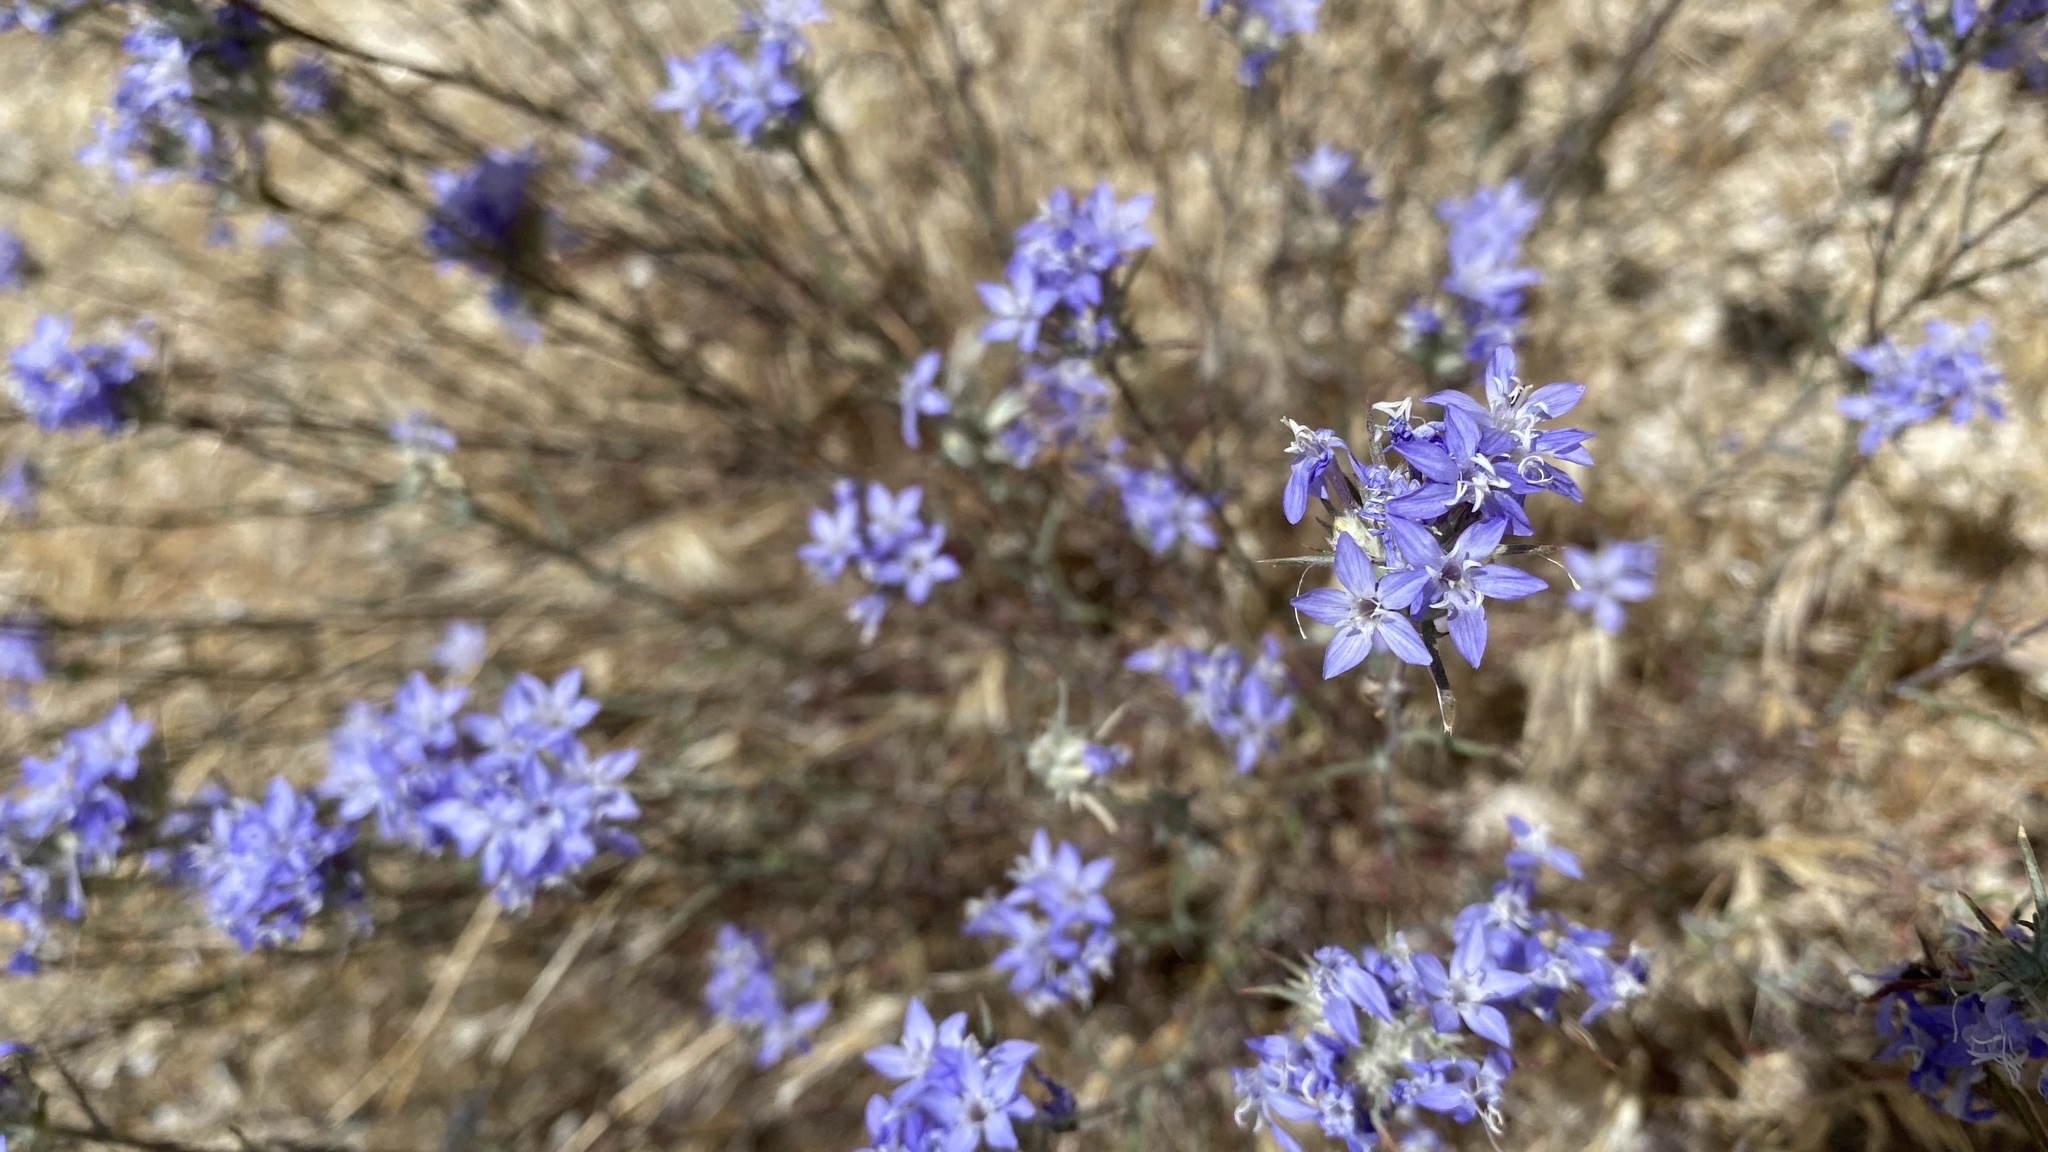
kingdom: Plantae
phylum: Tracheophyta
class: Magnoliopsida
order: Ericales
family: Polemoniaceae
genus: Eriastrum
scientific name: Eriastrum densifolium
